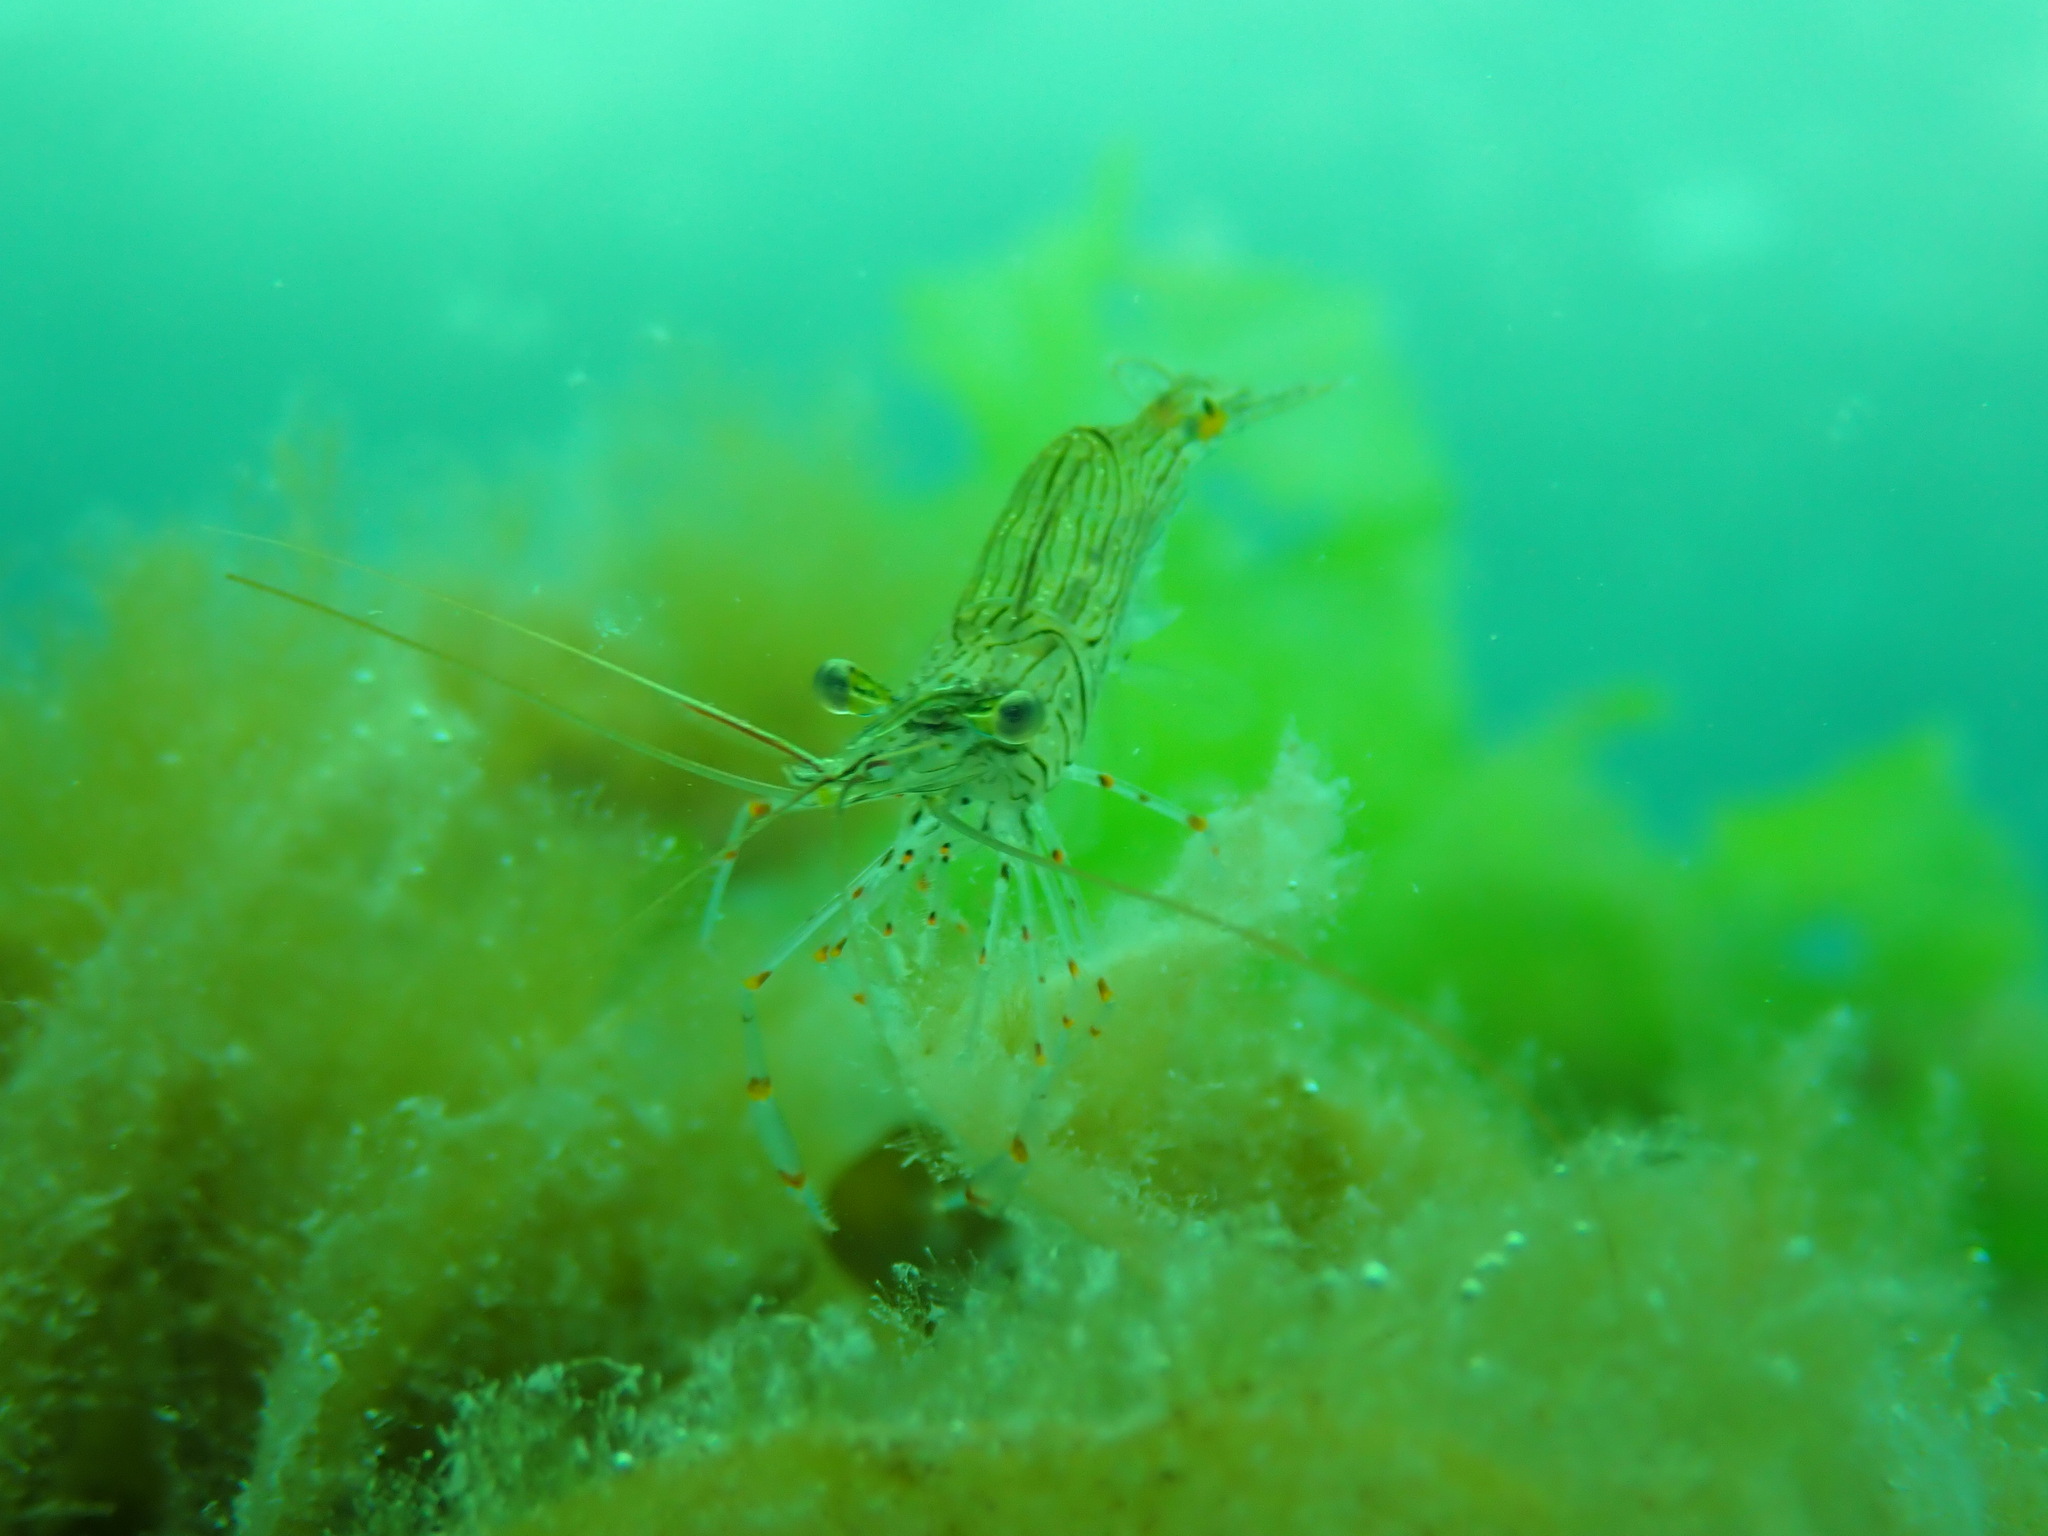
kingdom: Animalia
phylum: Arthropoda
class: Malacostraca
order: Decapoda
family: Palaemonidae
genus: Palaemon
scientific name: Palaemon affinis
